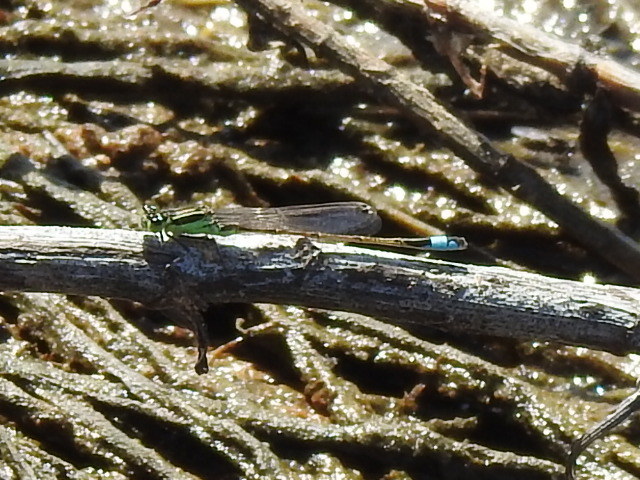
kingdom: Animalia
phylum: Arthropoda
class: Insecta
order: Odonata
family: Coenagrionidae
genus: Ischnura
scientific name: Ischnura ramburii
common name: Rambur's forktail
